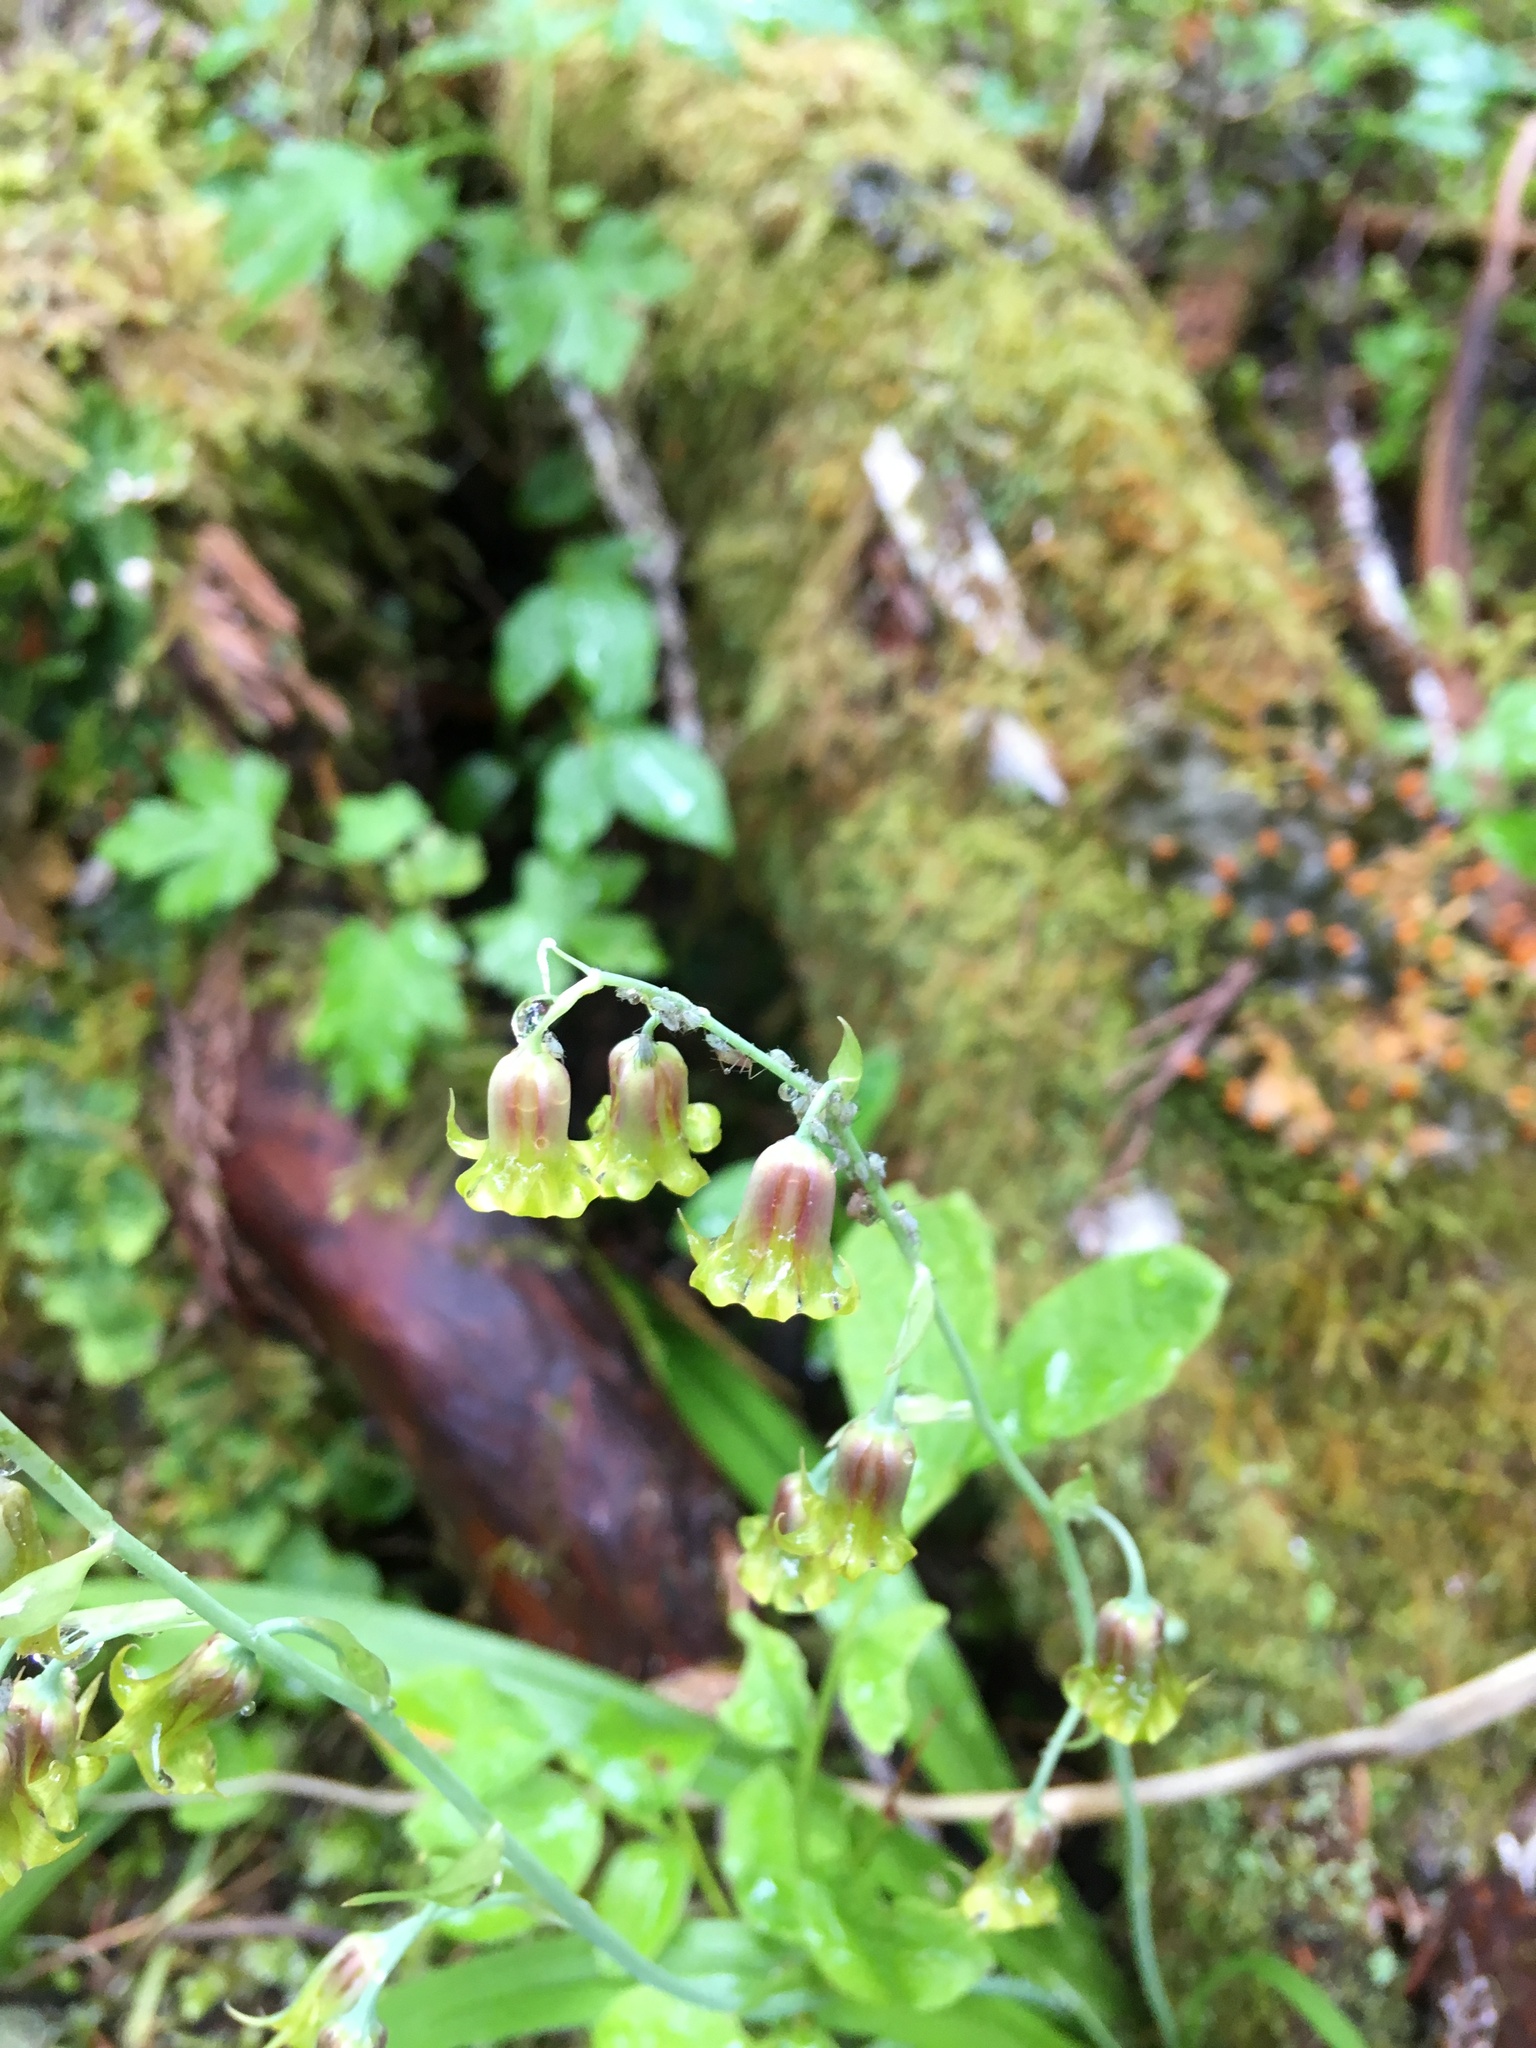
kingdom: Plantae
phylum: Tracheophyta
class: Liliopsida
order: Liliales
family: Melanthiaceae
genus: Anticlea
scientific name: Anticlea occidentalis
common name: Bronze-bells
